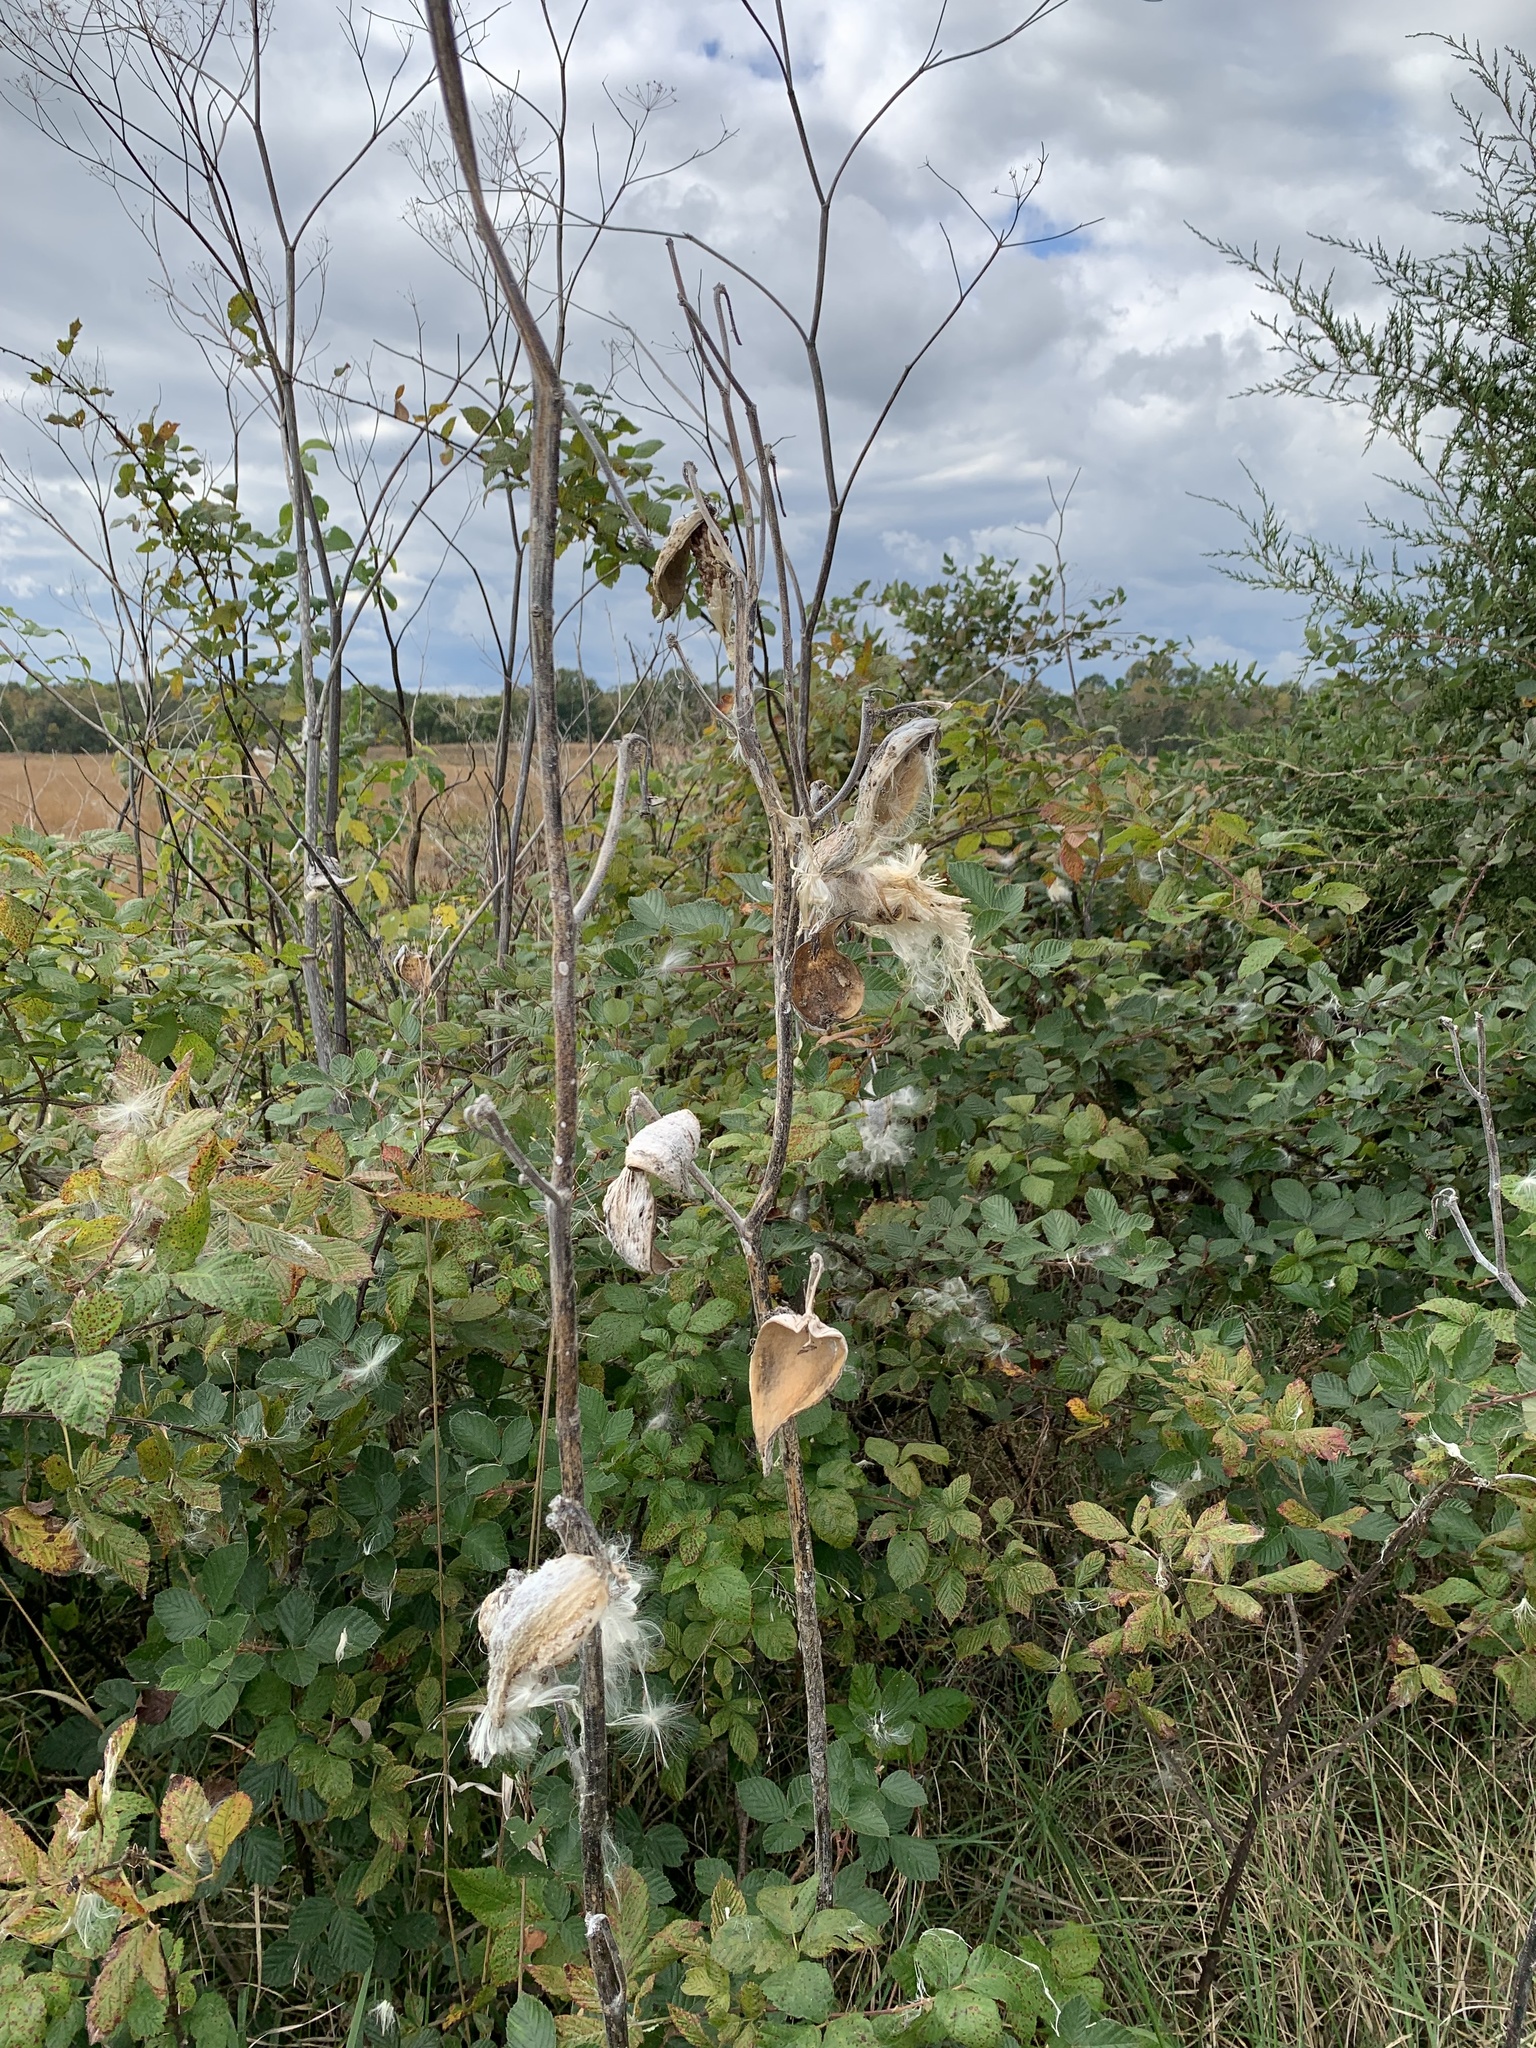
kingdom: Plantae
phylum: Tracheophyta
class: Magnoliopsida
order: Gentianales
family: Apocynaceae
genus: Asclepias
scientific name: Asclepias syriaca
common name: Common milkweed
